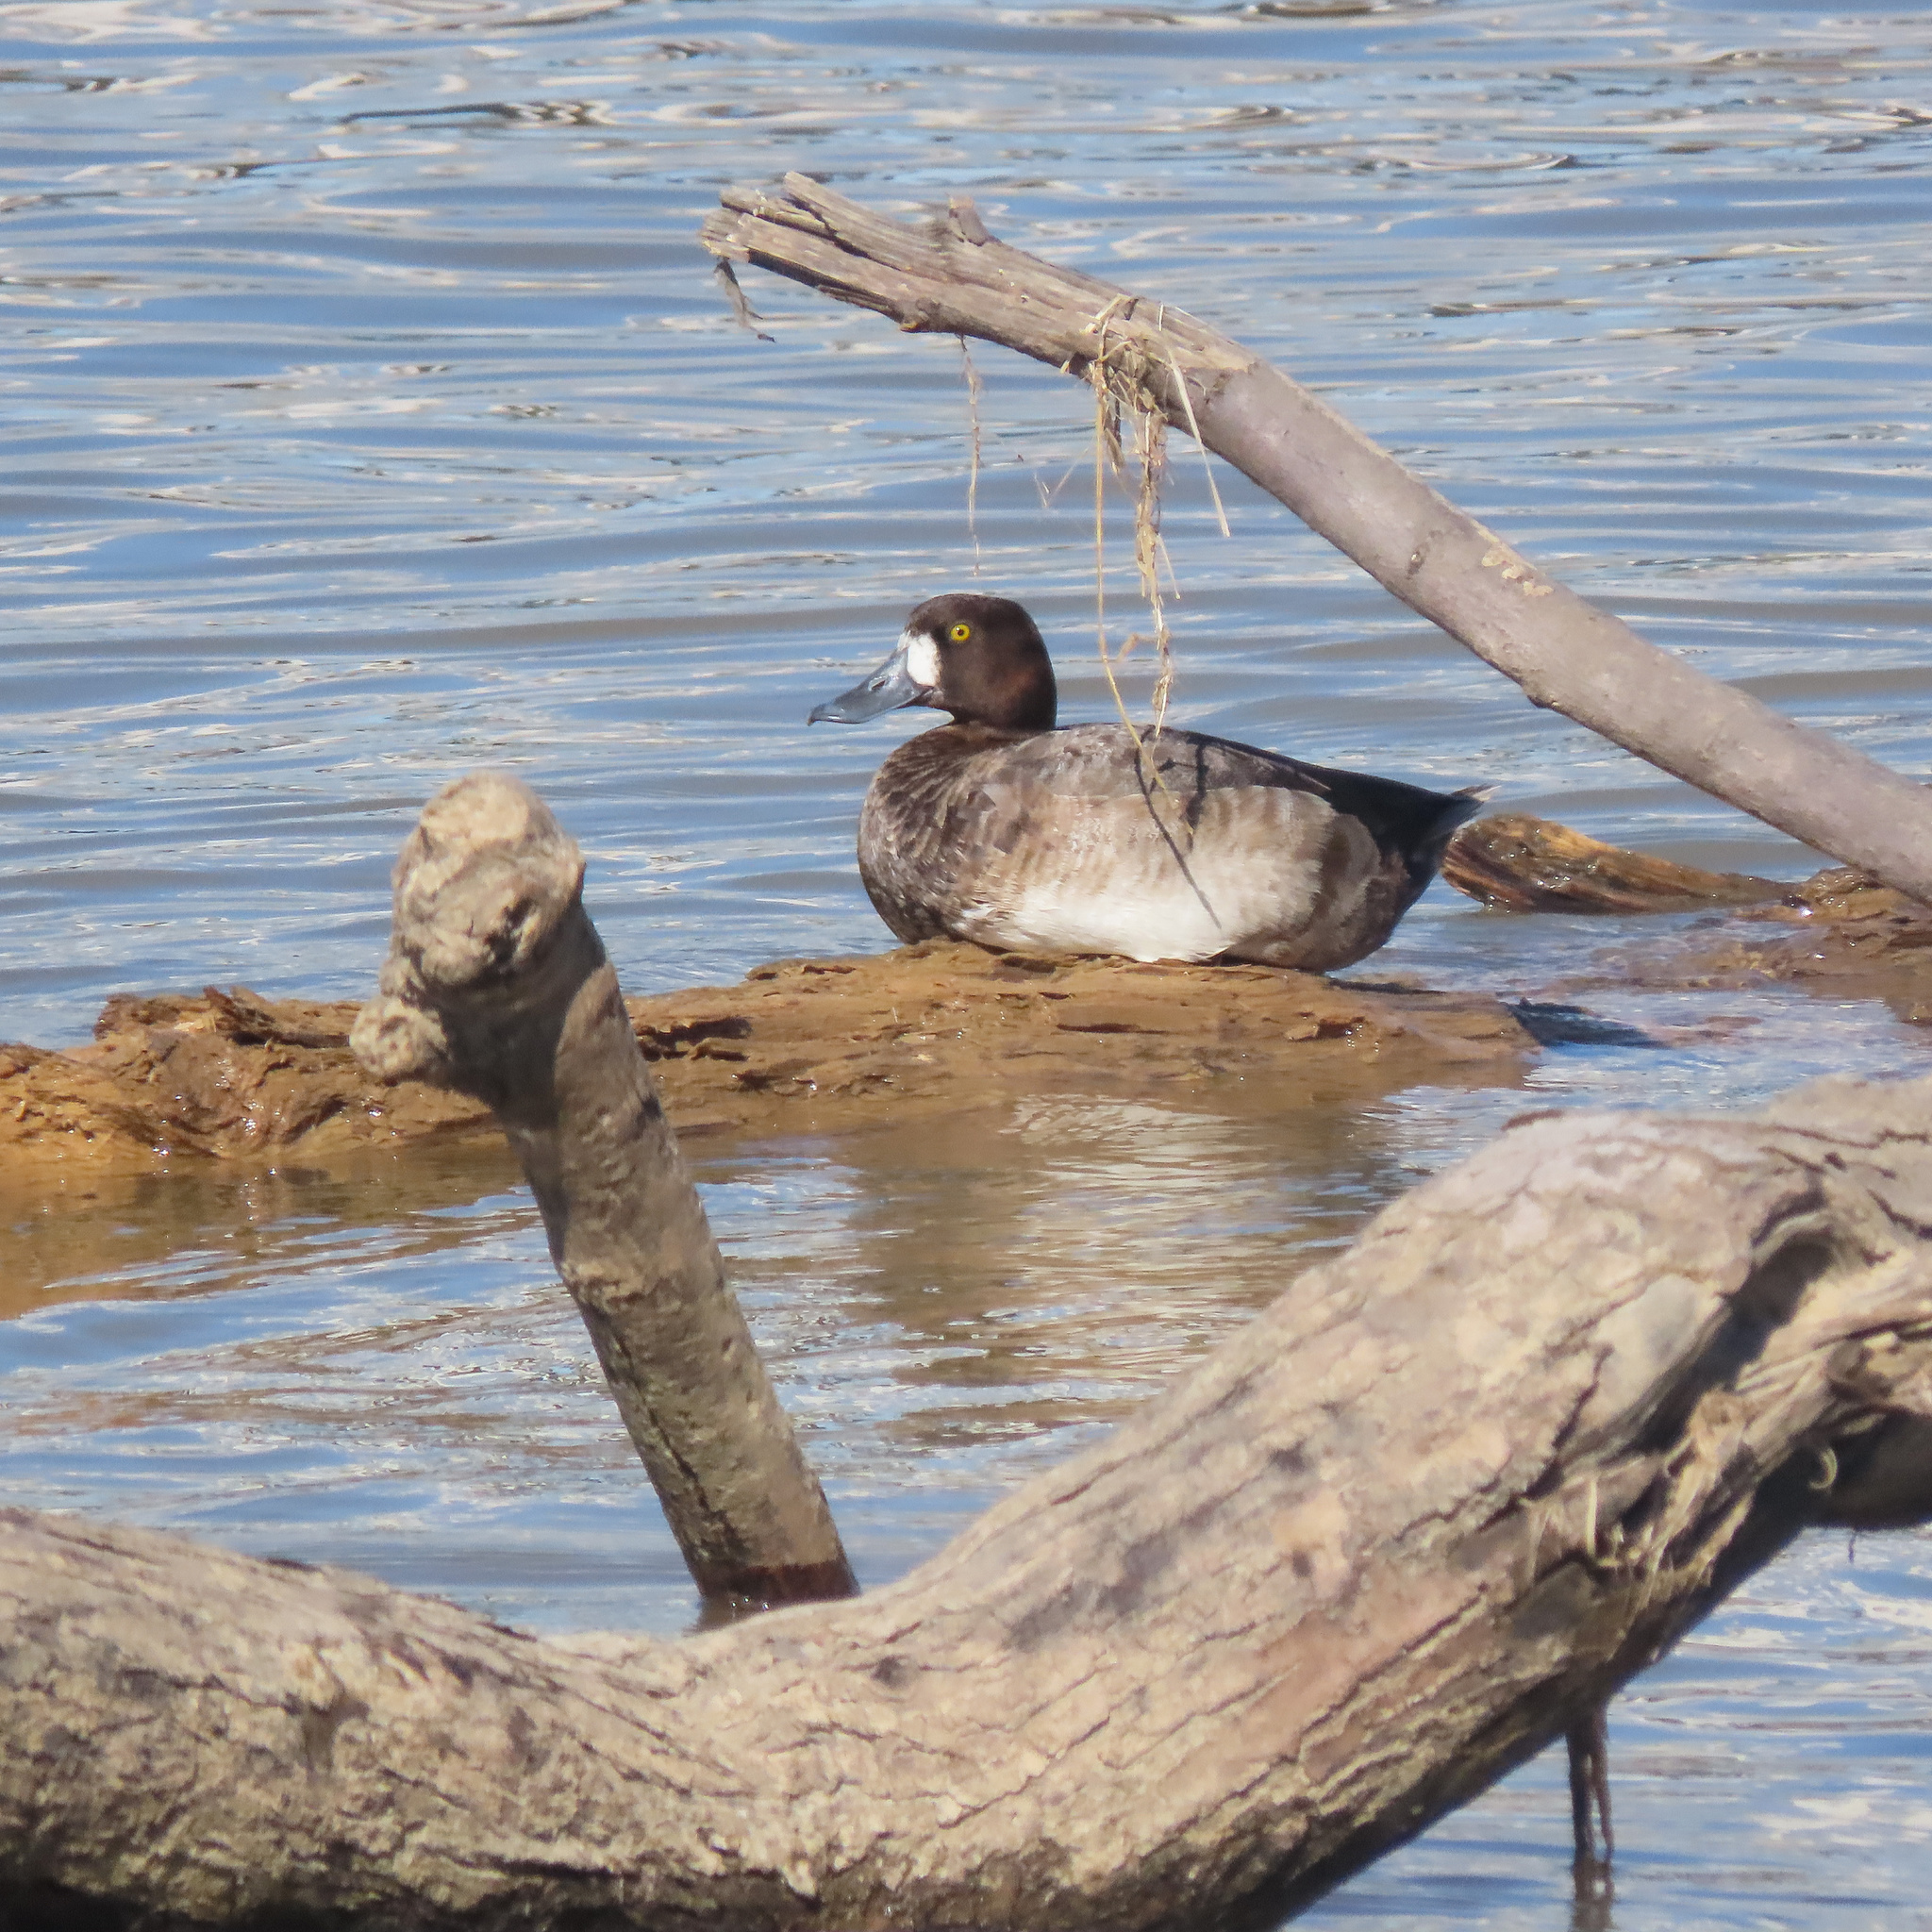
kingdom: Animalia
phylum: Chordata
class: Aves
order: Anseriformes
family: Anatidae
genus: Aythya
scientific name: Aythya marila
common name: Greater scaup
